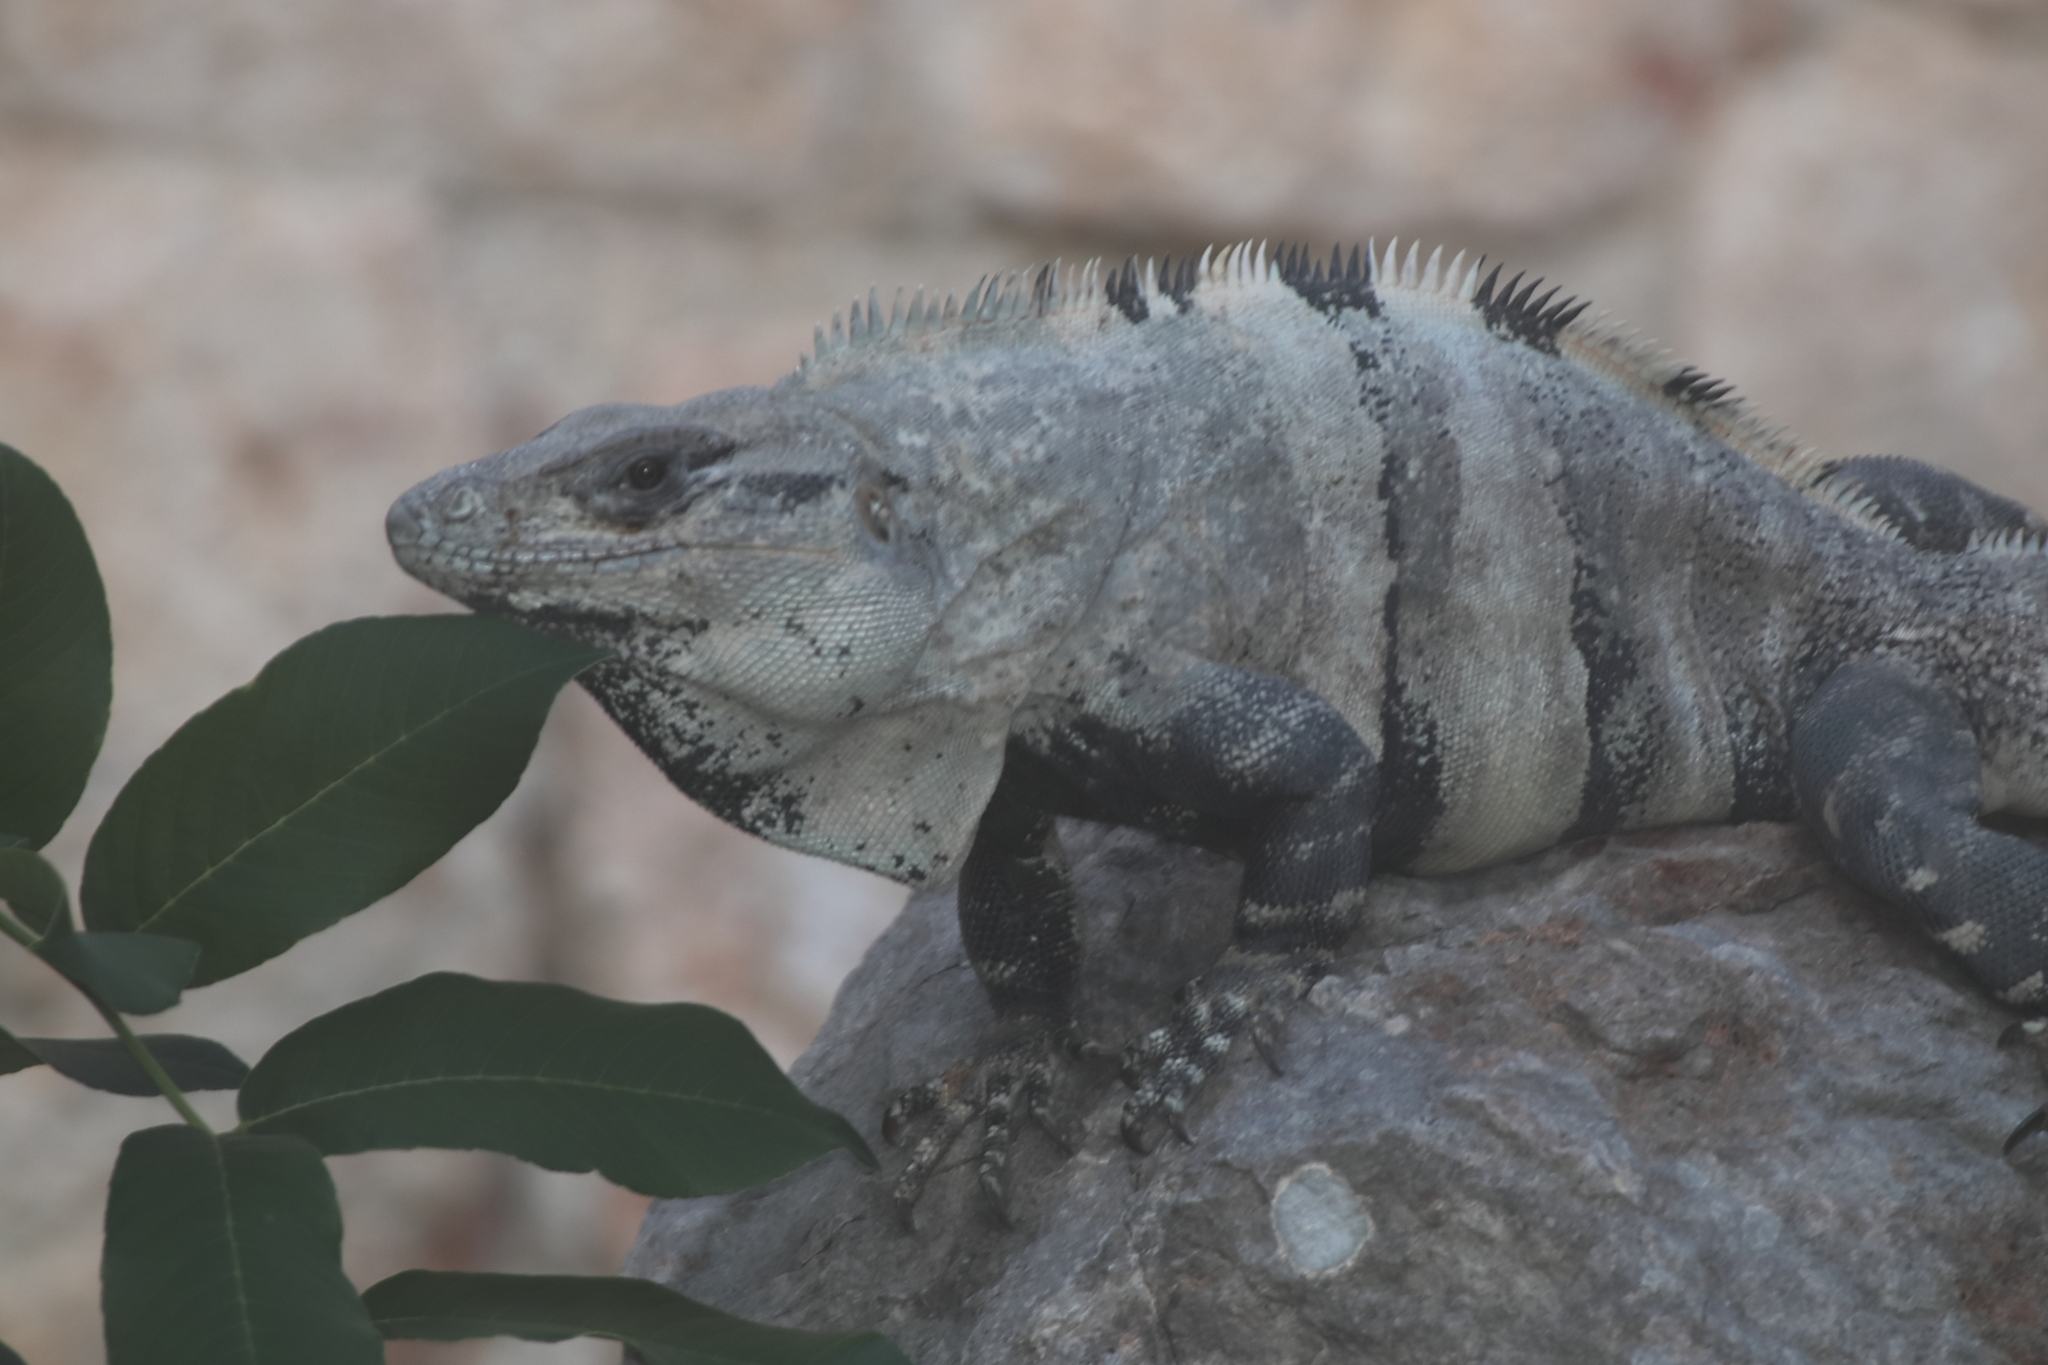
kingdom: Animalia
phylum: Chordata
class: Squamata
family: Iguanidae
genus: Ctenosaura
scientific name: Ctenosaura similis
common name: Black spiny-tailed iguana
